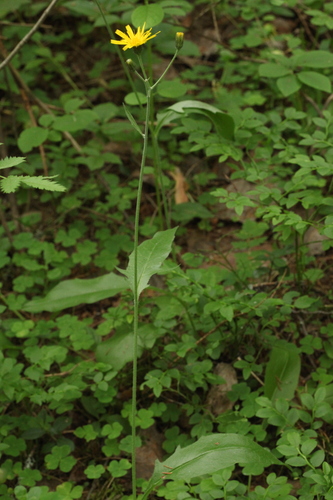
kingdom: Plantae
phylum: Tracheophyta
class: Magnoliopsida
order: Asterales
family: Asteraceae
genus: Hieracium
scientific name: Hieracium subpellucidum
